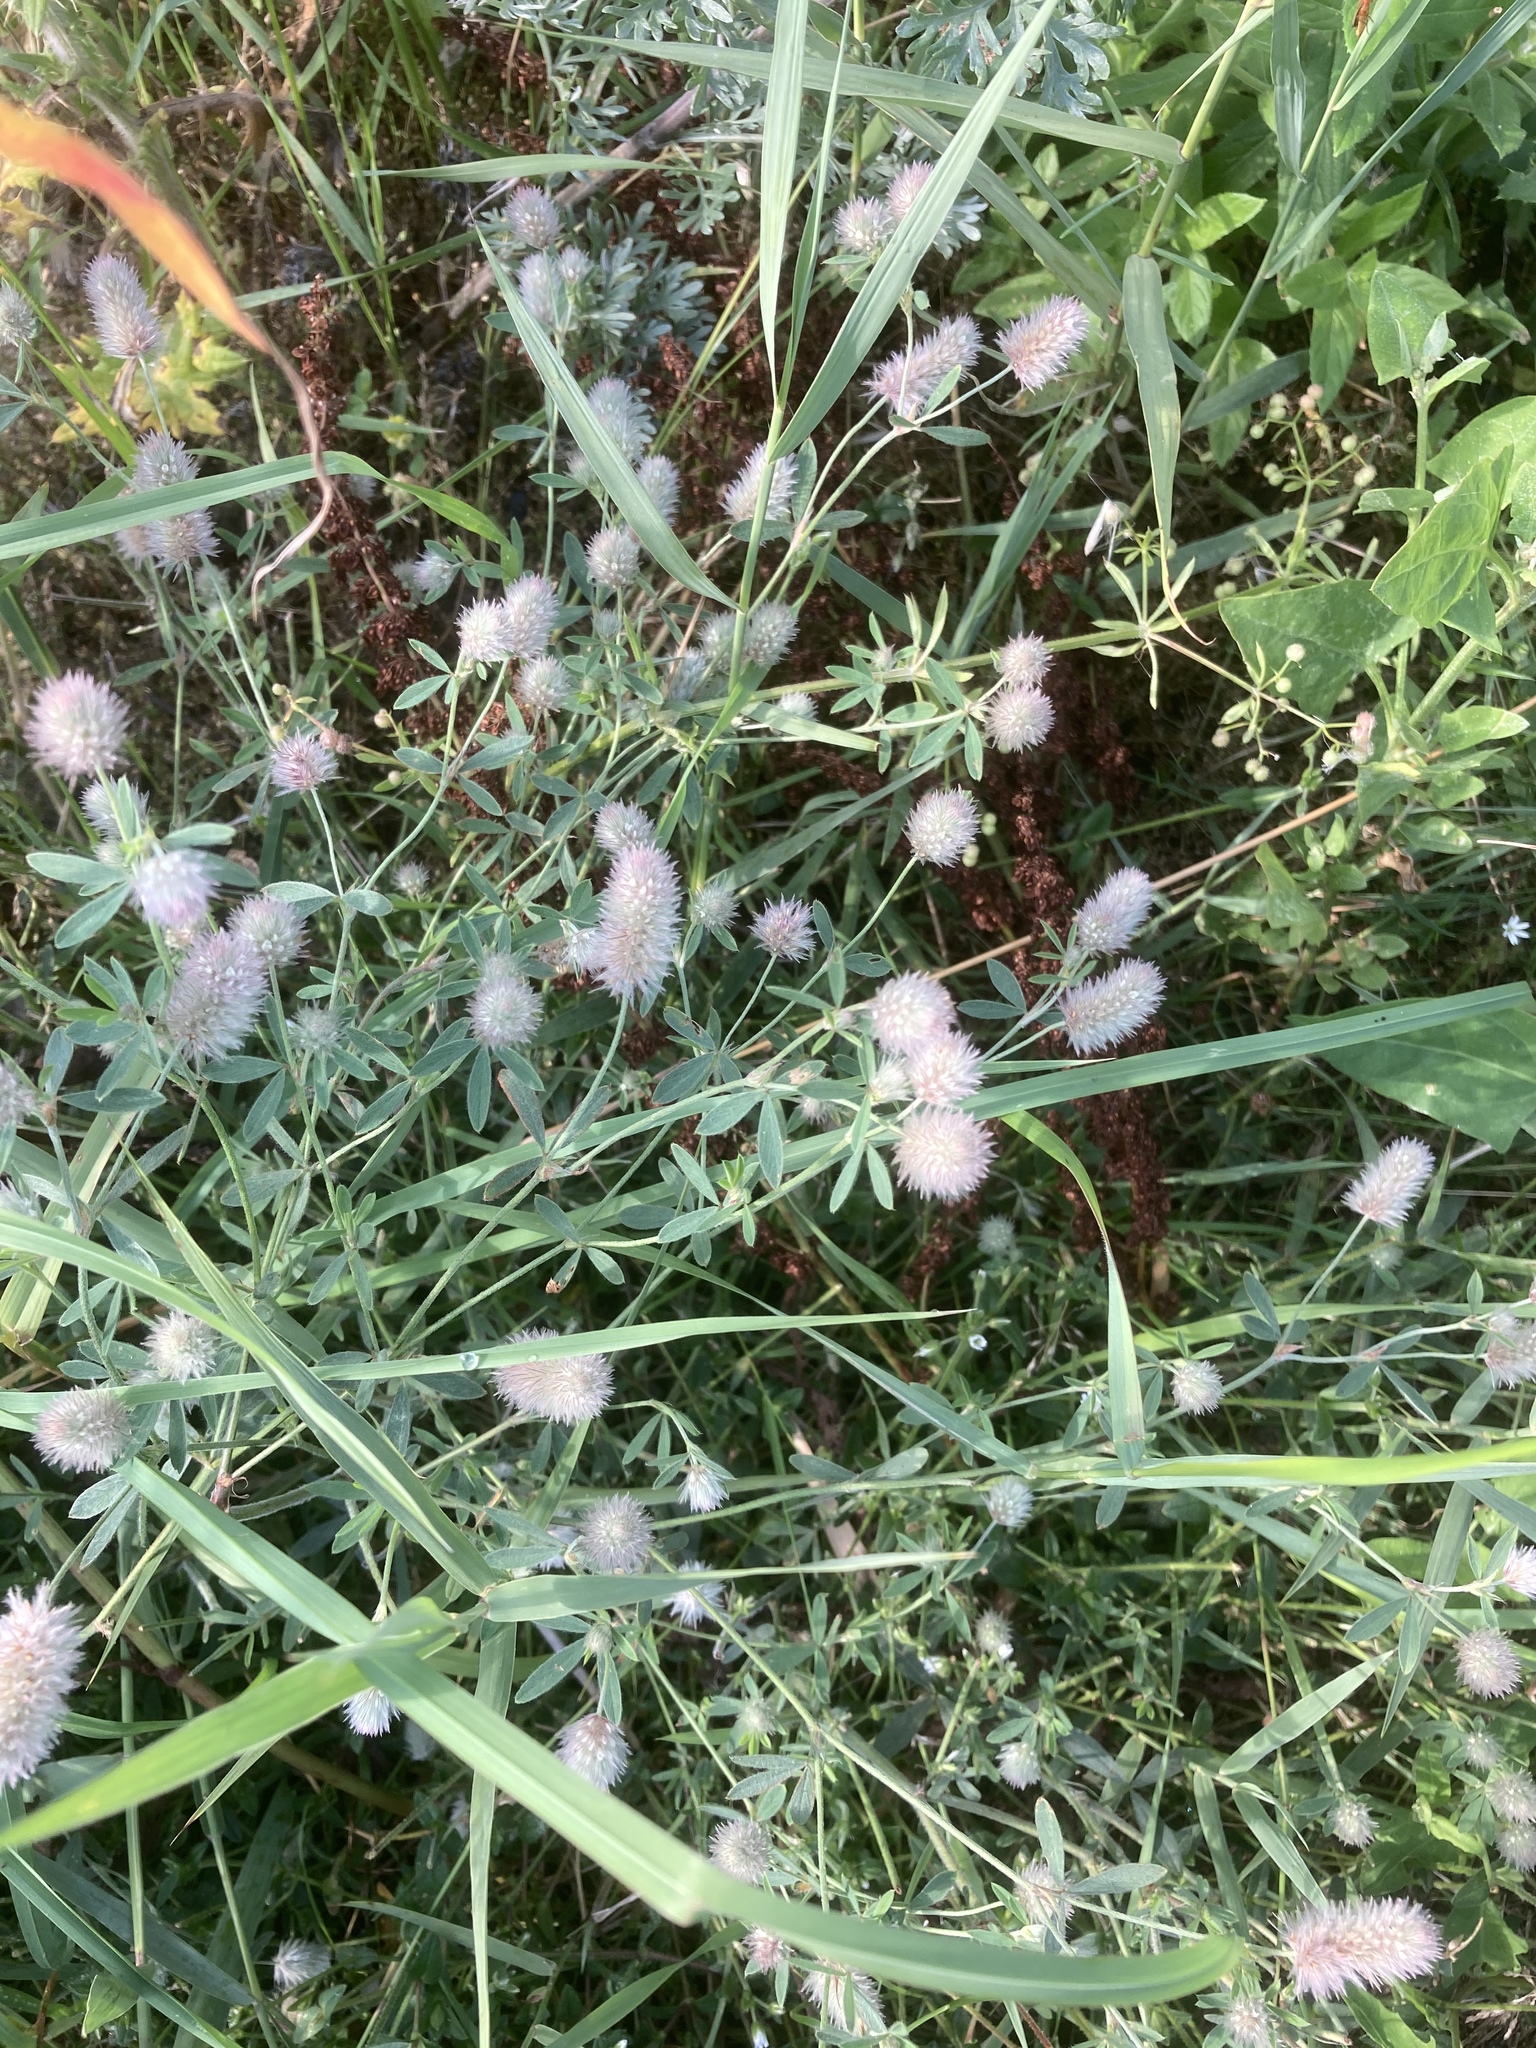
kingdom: Plantae
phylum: Tracheophyta
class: Magnoliopsida
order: Fabales
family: Fabaceae
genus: Trifolium
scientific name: Trifolium arvense
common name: Hare's-foot clover
